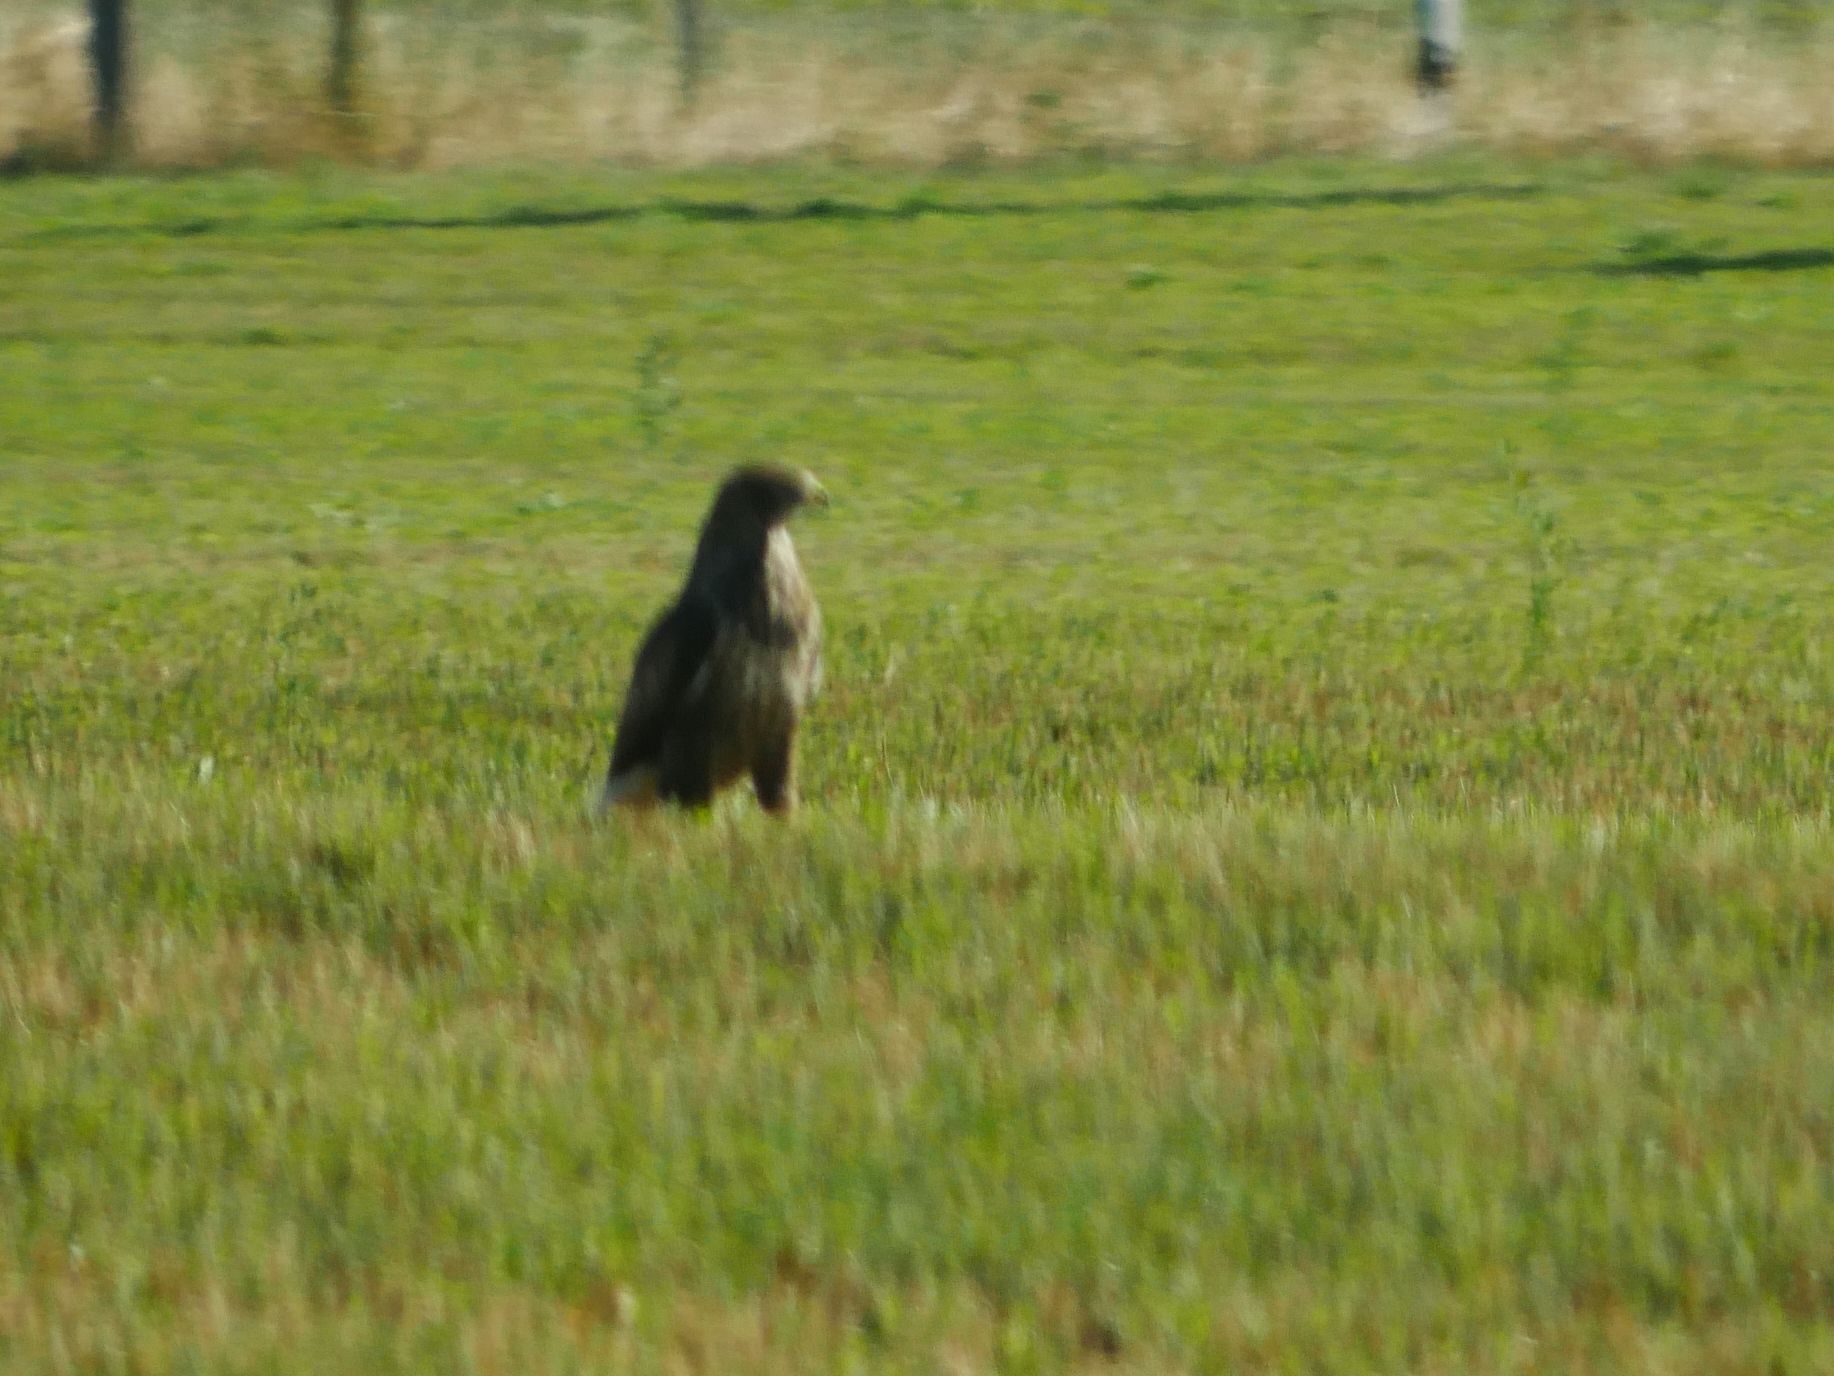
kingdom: Animalia
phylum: Chordata
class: Aves
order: Accipitriformes
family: Accipitridae
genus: Buteo
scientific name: Buteo buteo
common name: Common buzzard
